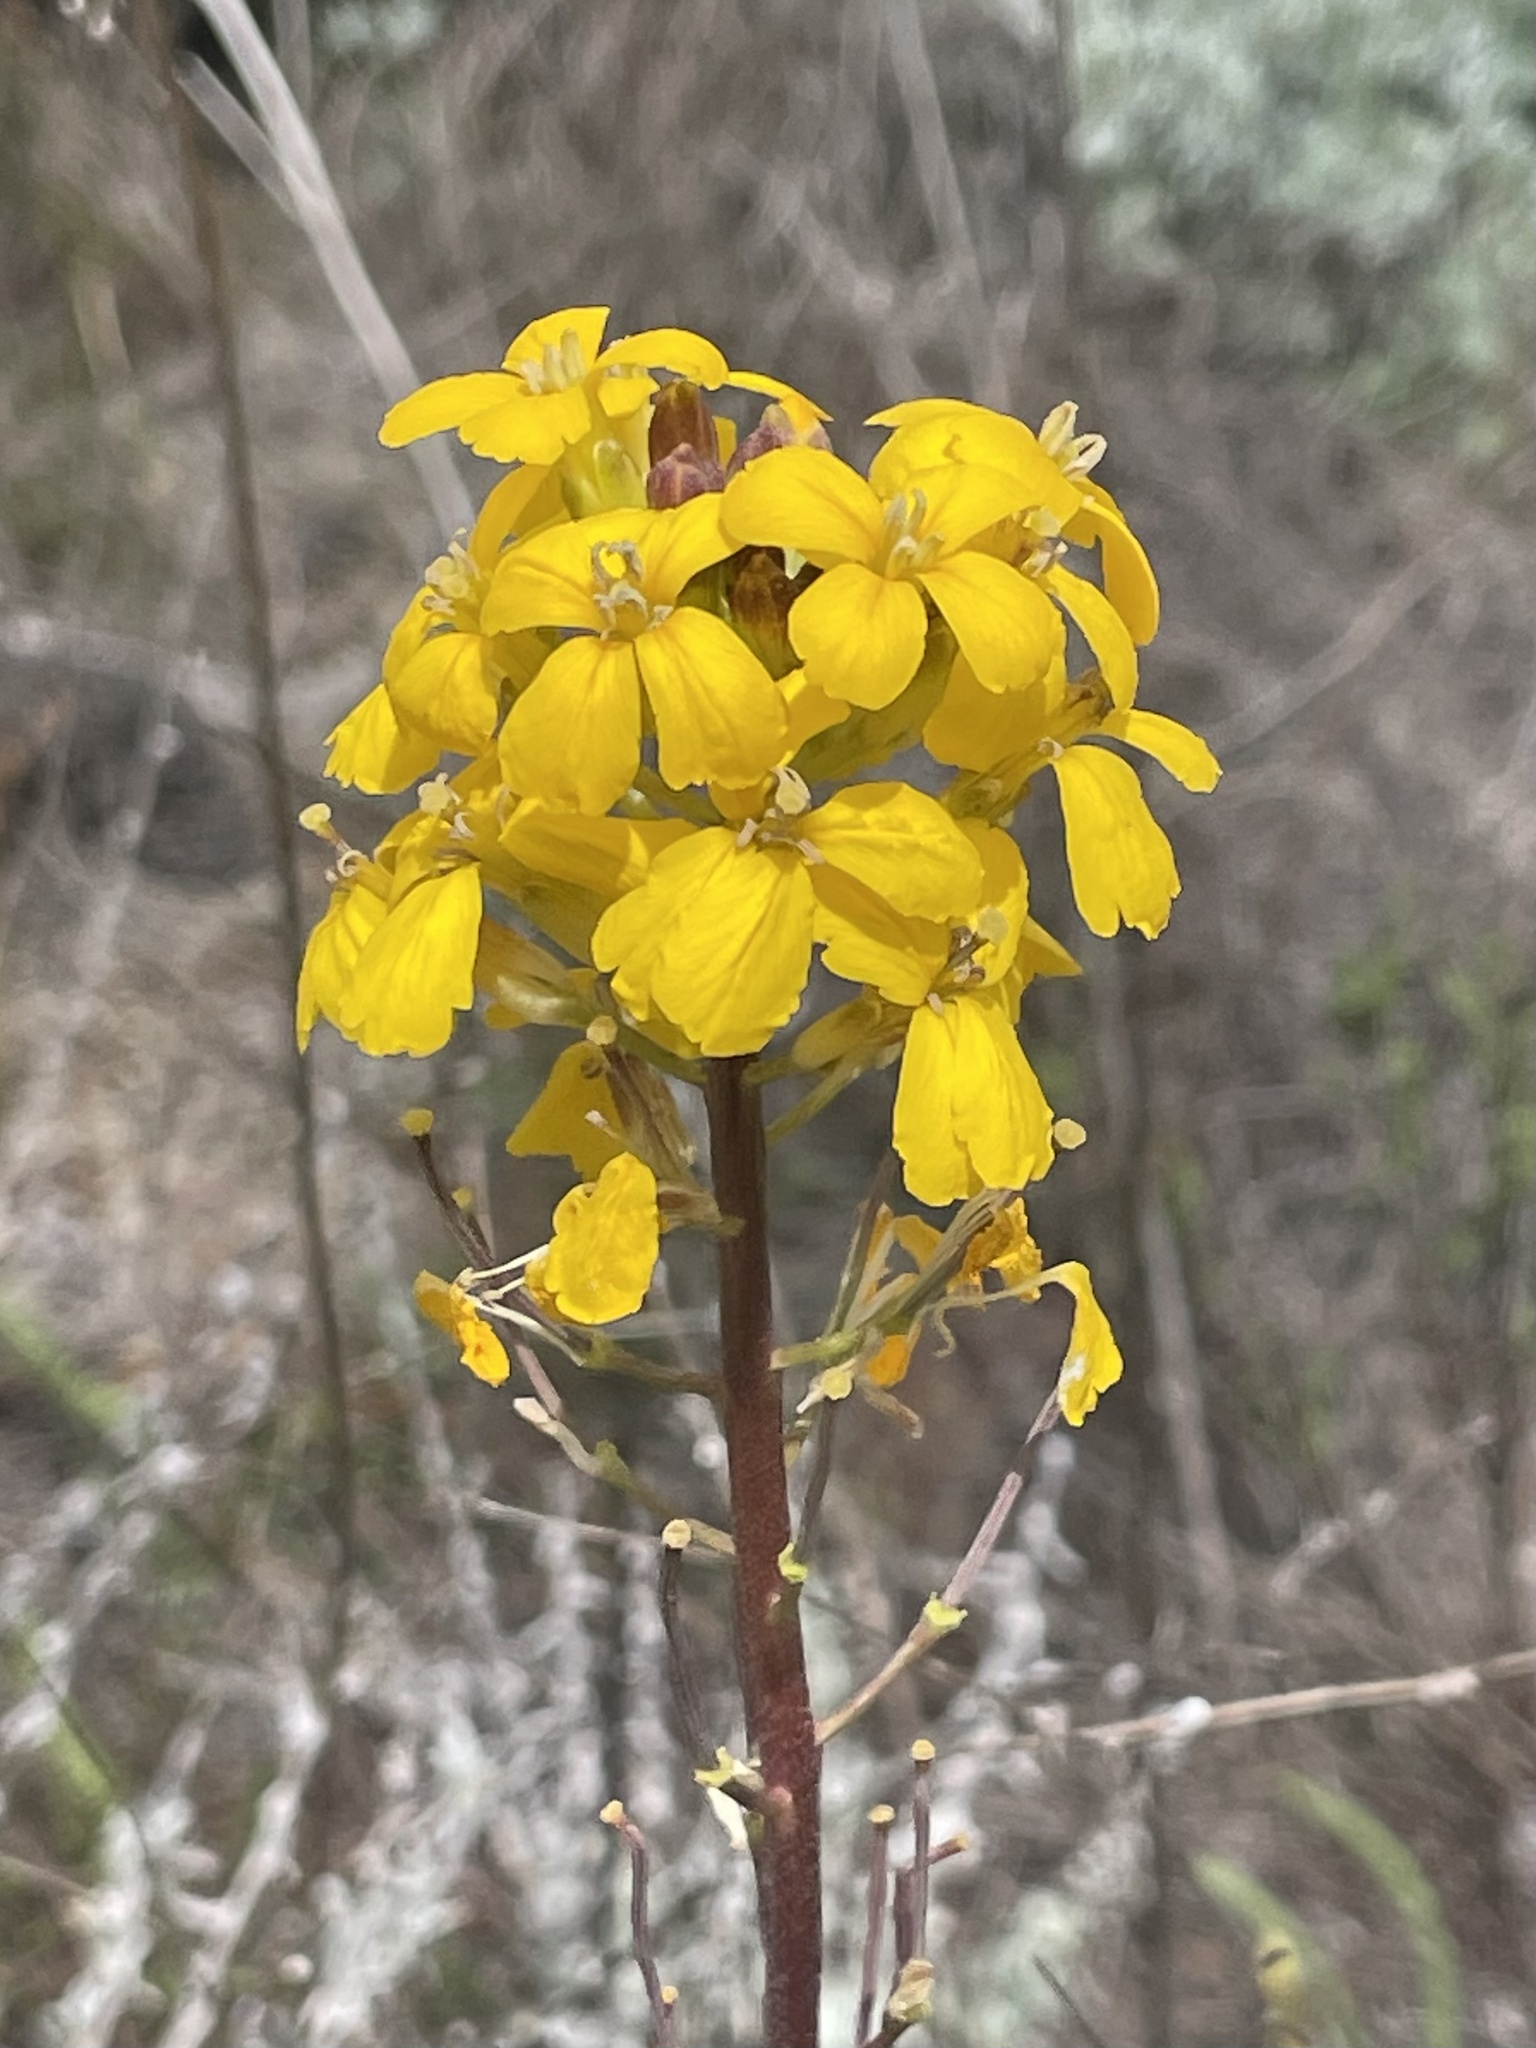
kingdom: Plantae
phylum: Tracheophyta
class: Magnoliopsida
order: Brassicales
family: Brassicaceae
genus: Erysimum
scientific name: Erysimum teretifolium
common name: Ben lomond wallflower
